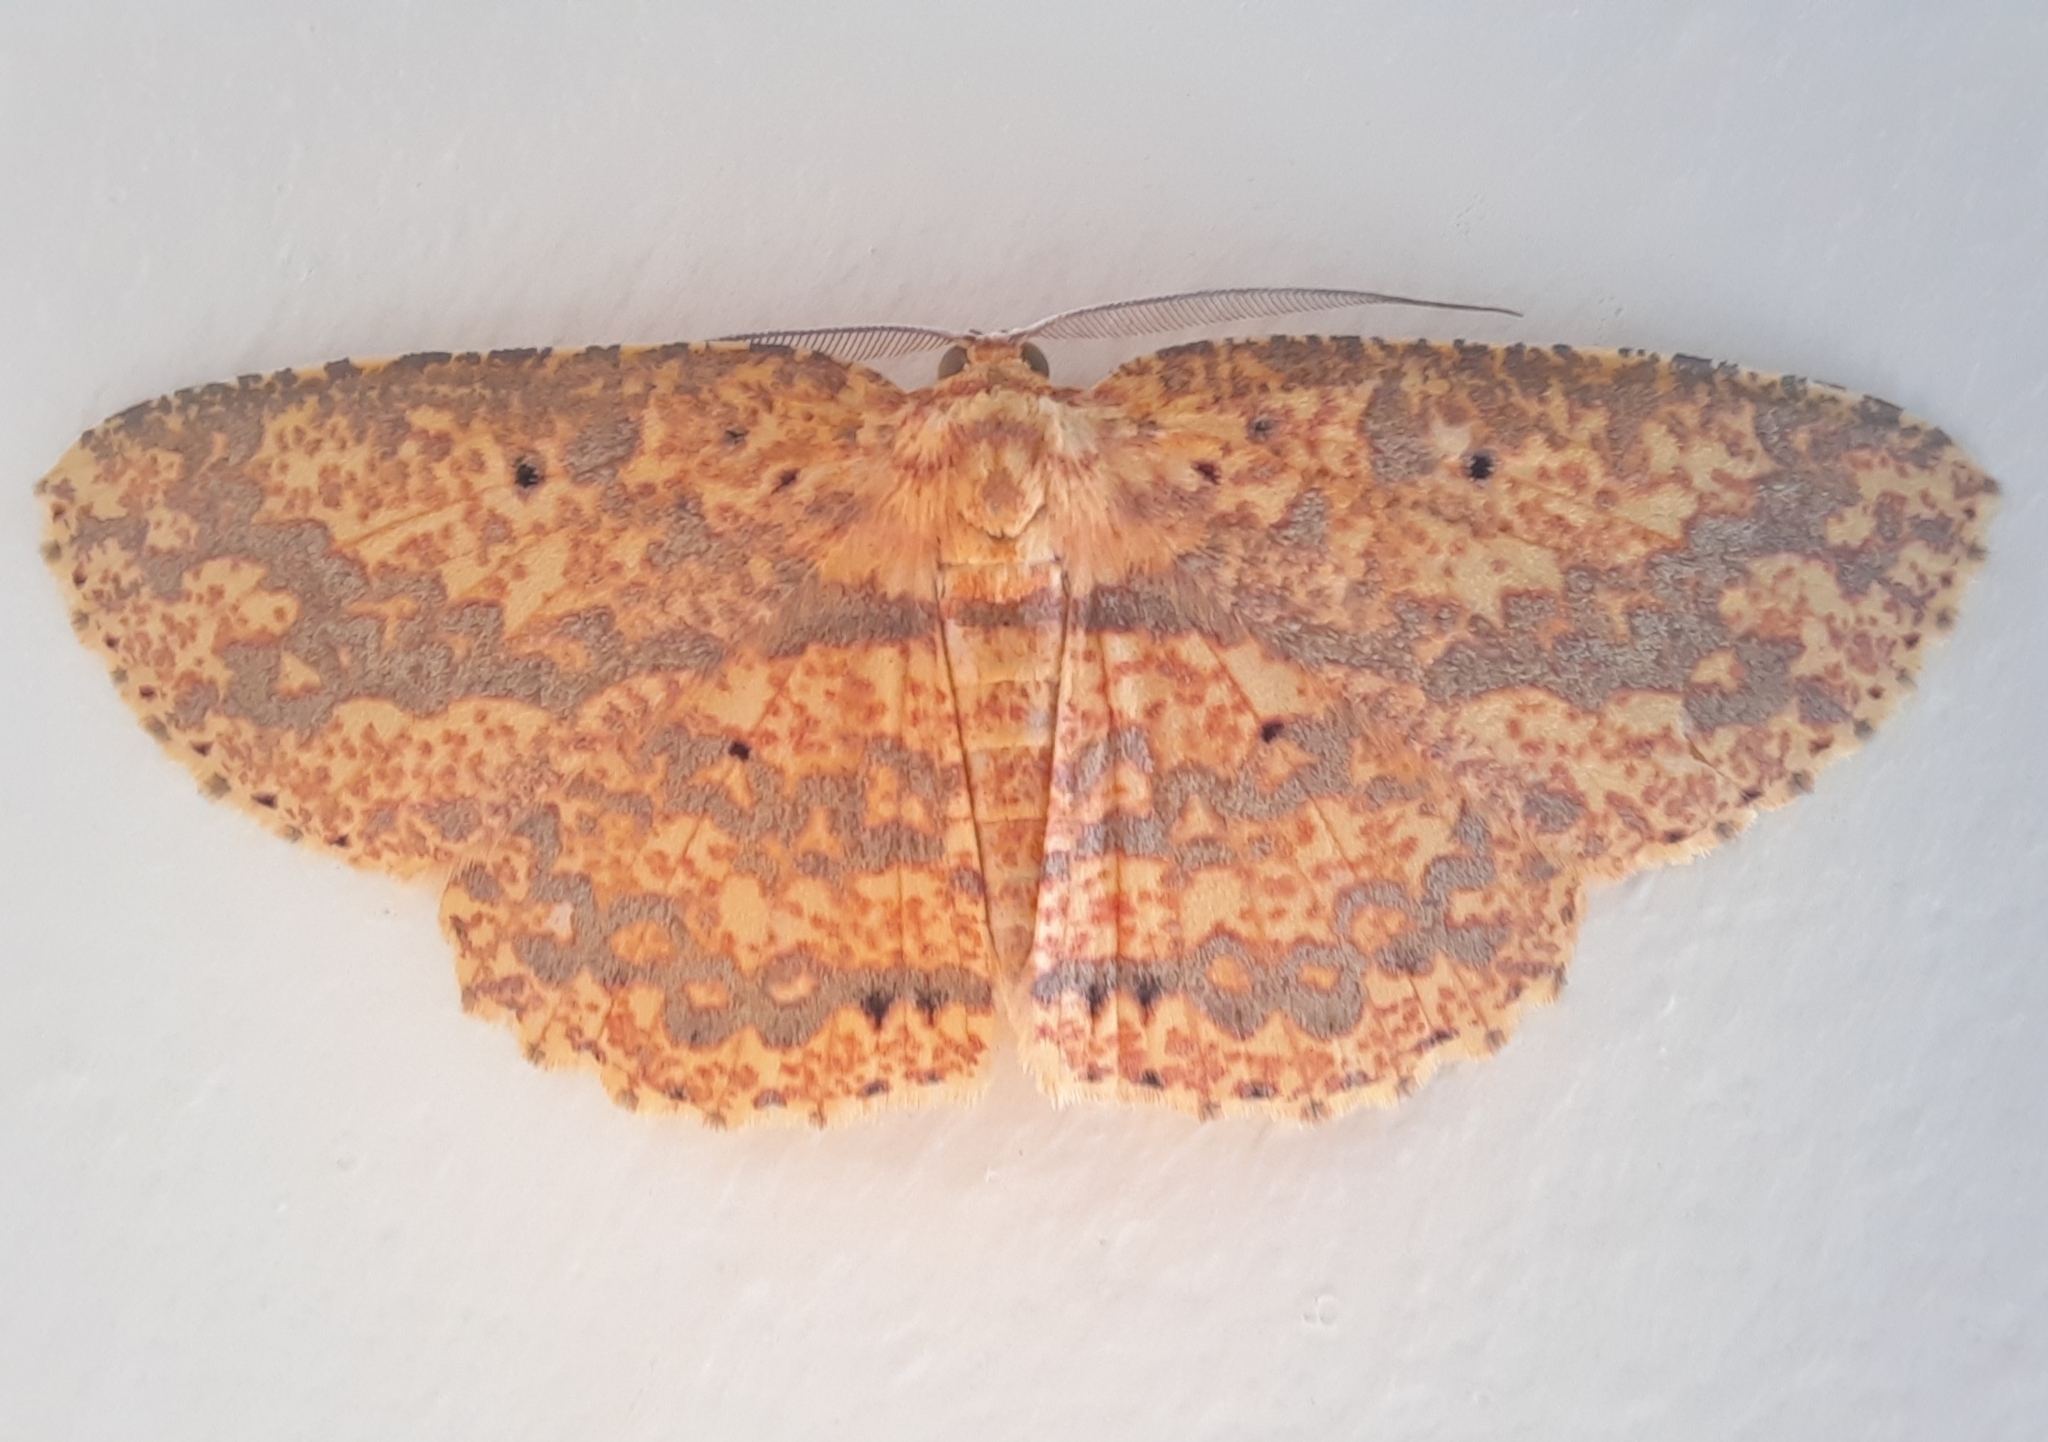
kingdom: Animalia
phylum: Arthropoda
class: Insecta
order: Lepidoptera
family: Geometridae
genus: Borbacha
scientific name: Borbacha pardaria
